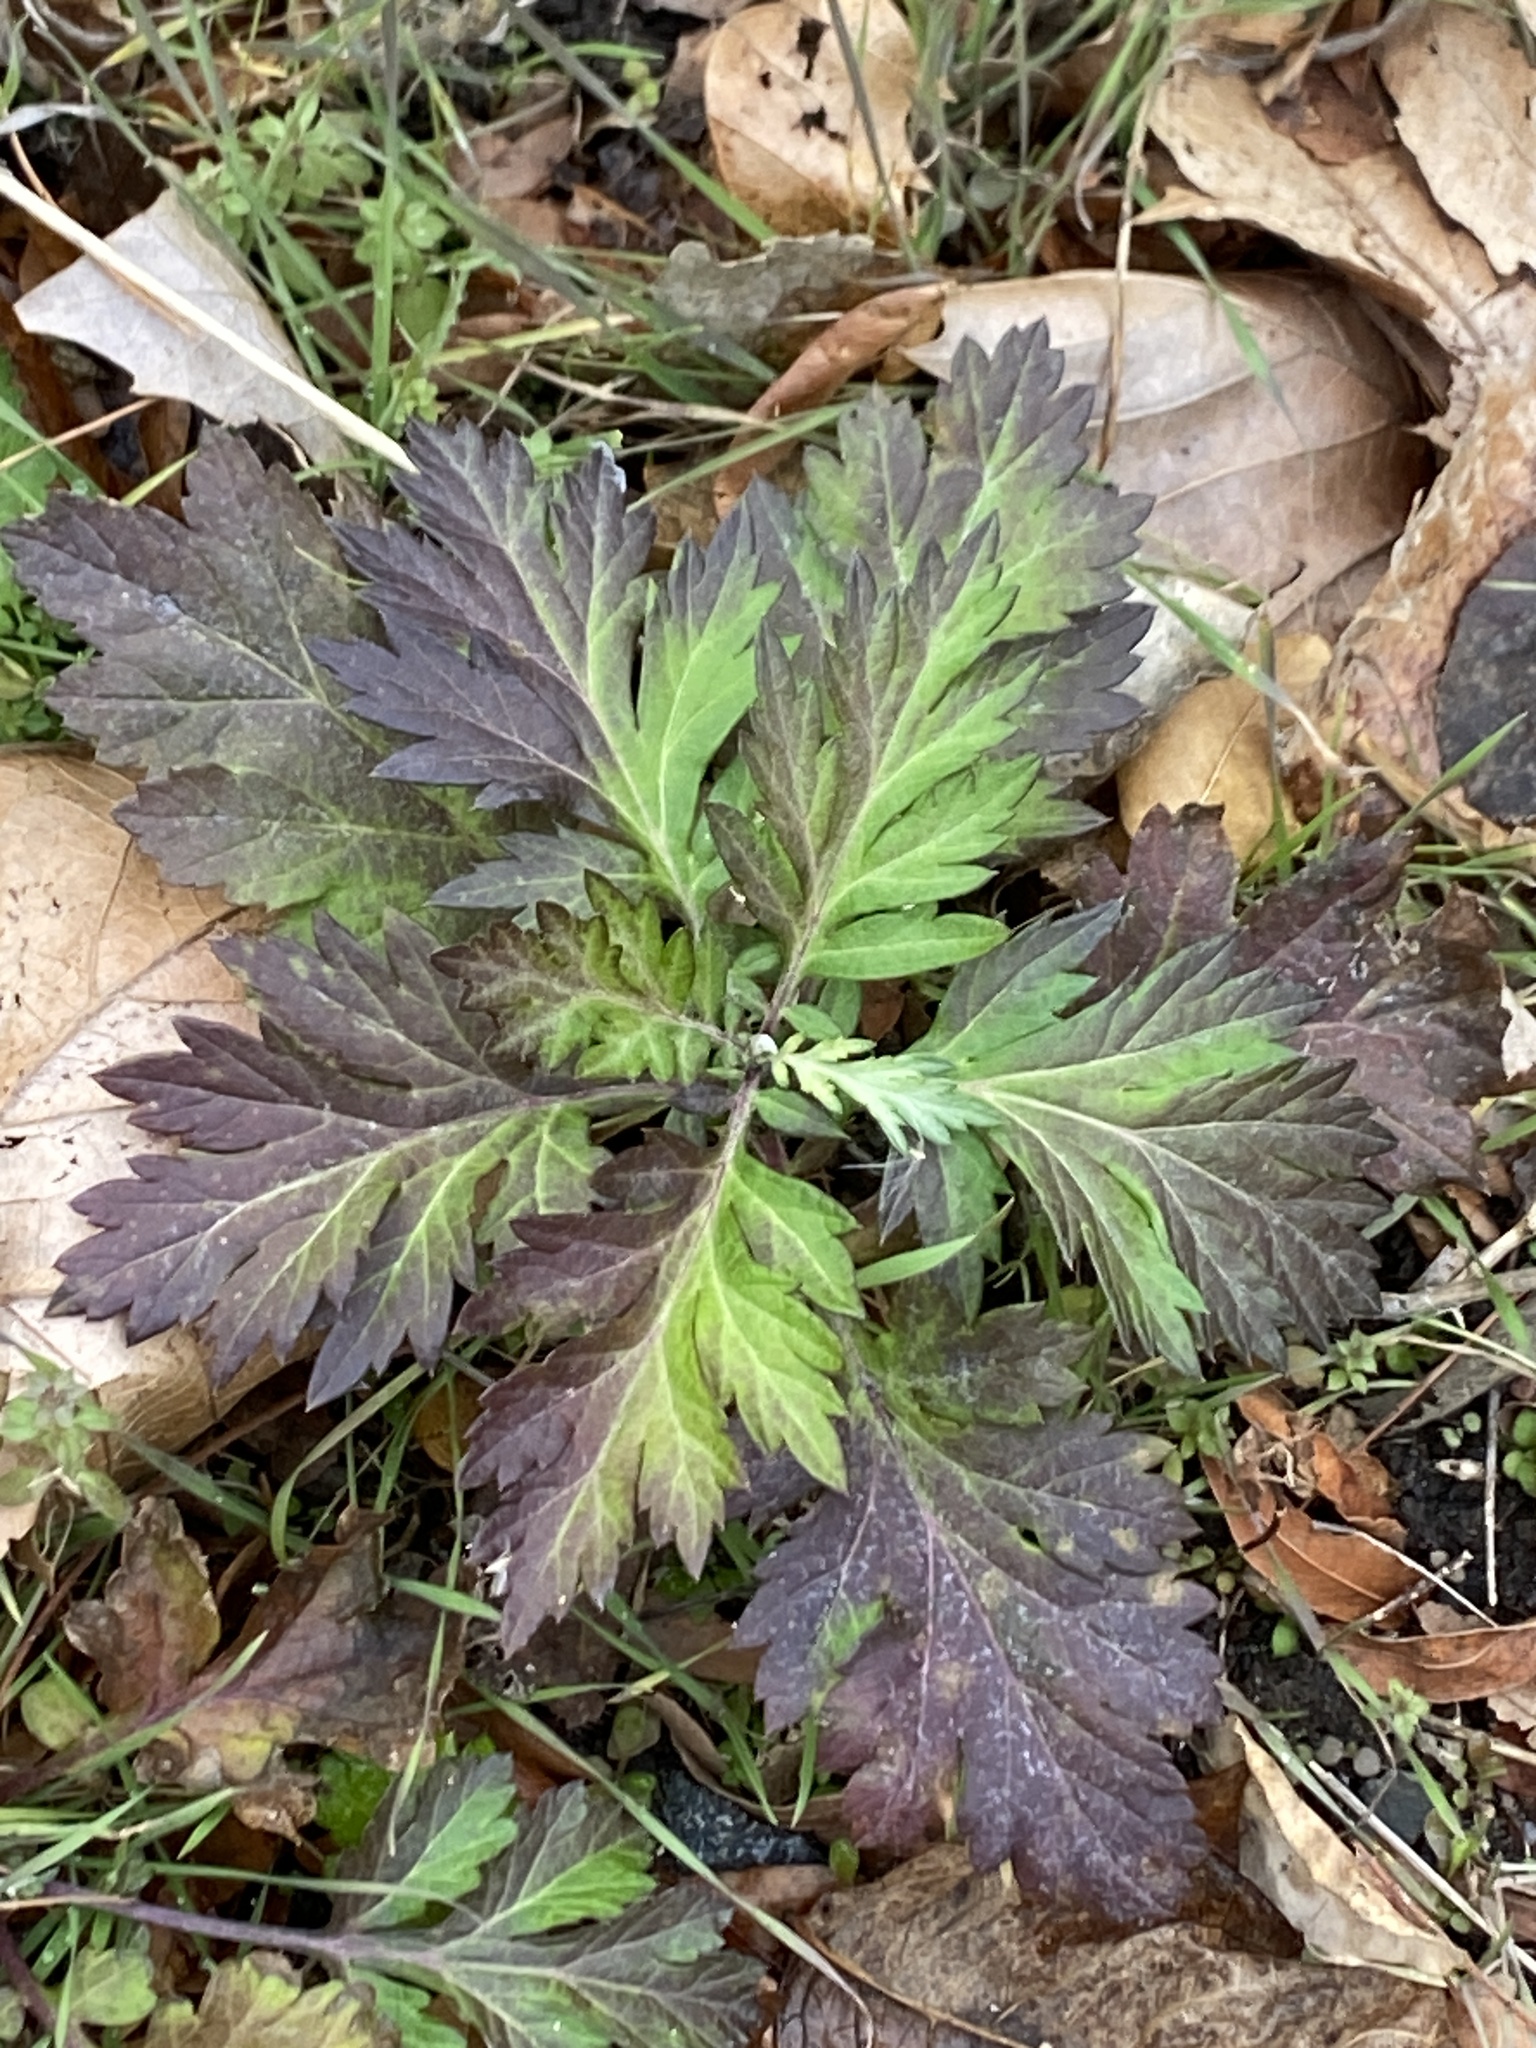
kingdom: Plantae
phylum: Tracheophyta
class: Magnoliopsida
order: Asterales
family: Asteraceae
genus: Artemisia
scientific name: Artemisia vulgaris
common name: Mugwort
